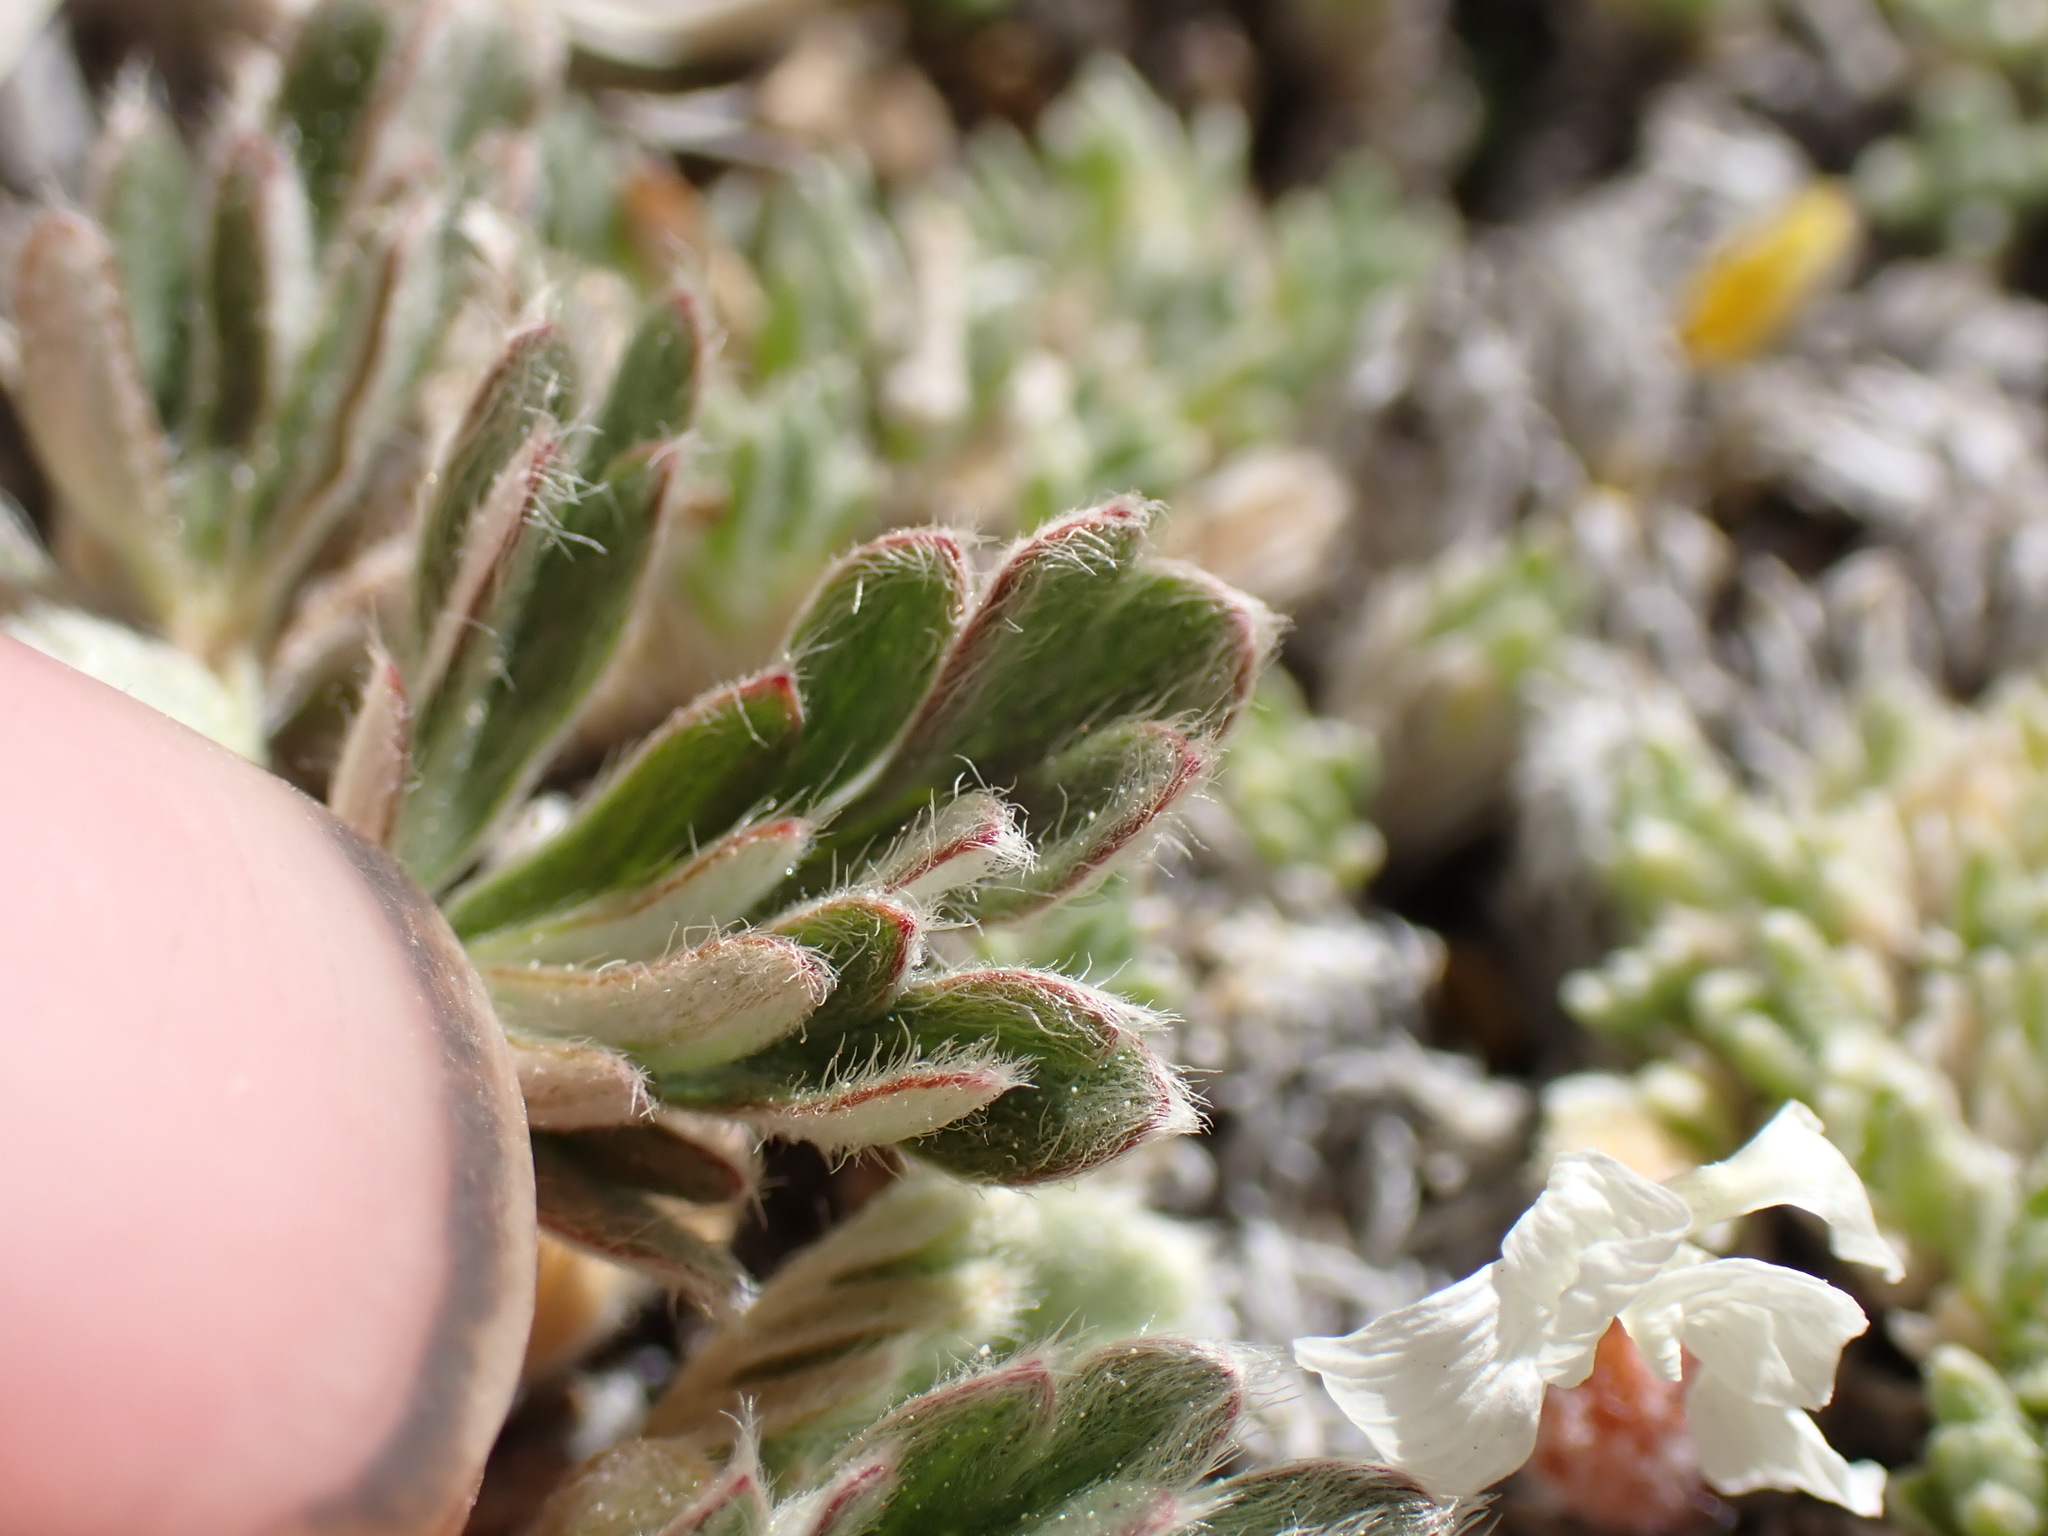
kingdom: Plantae
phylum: Tracheophyta
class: Magnoliopsida
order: Rosales
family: Rosaceae
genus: Potentilla
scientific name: Potentilla pseudosericea
